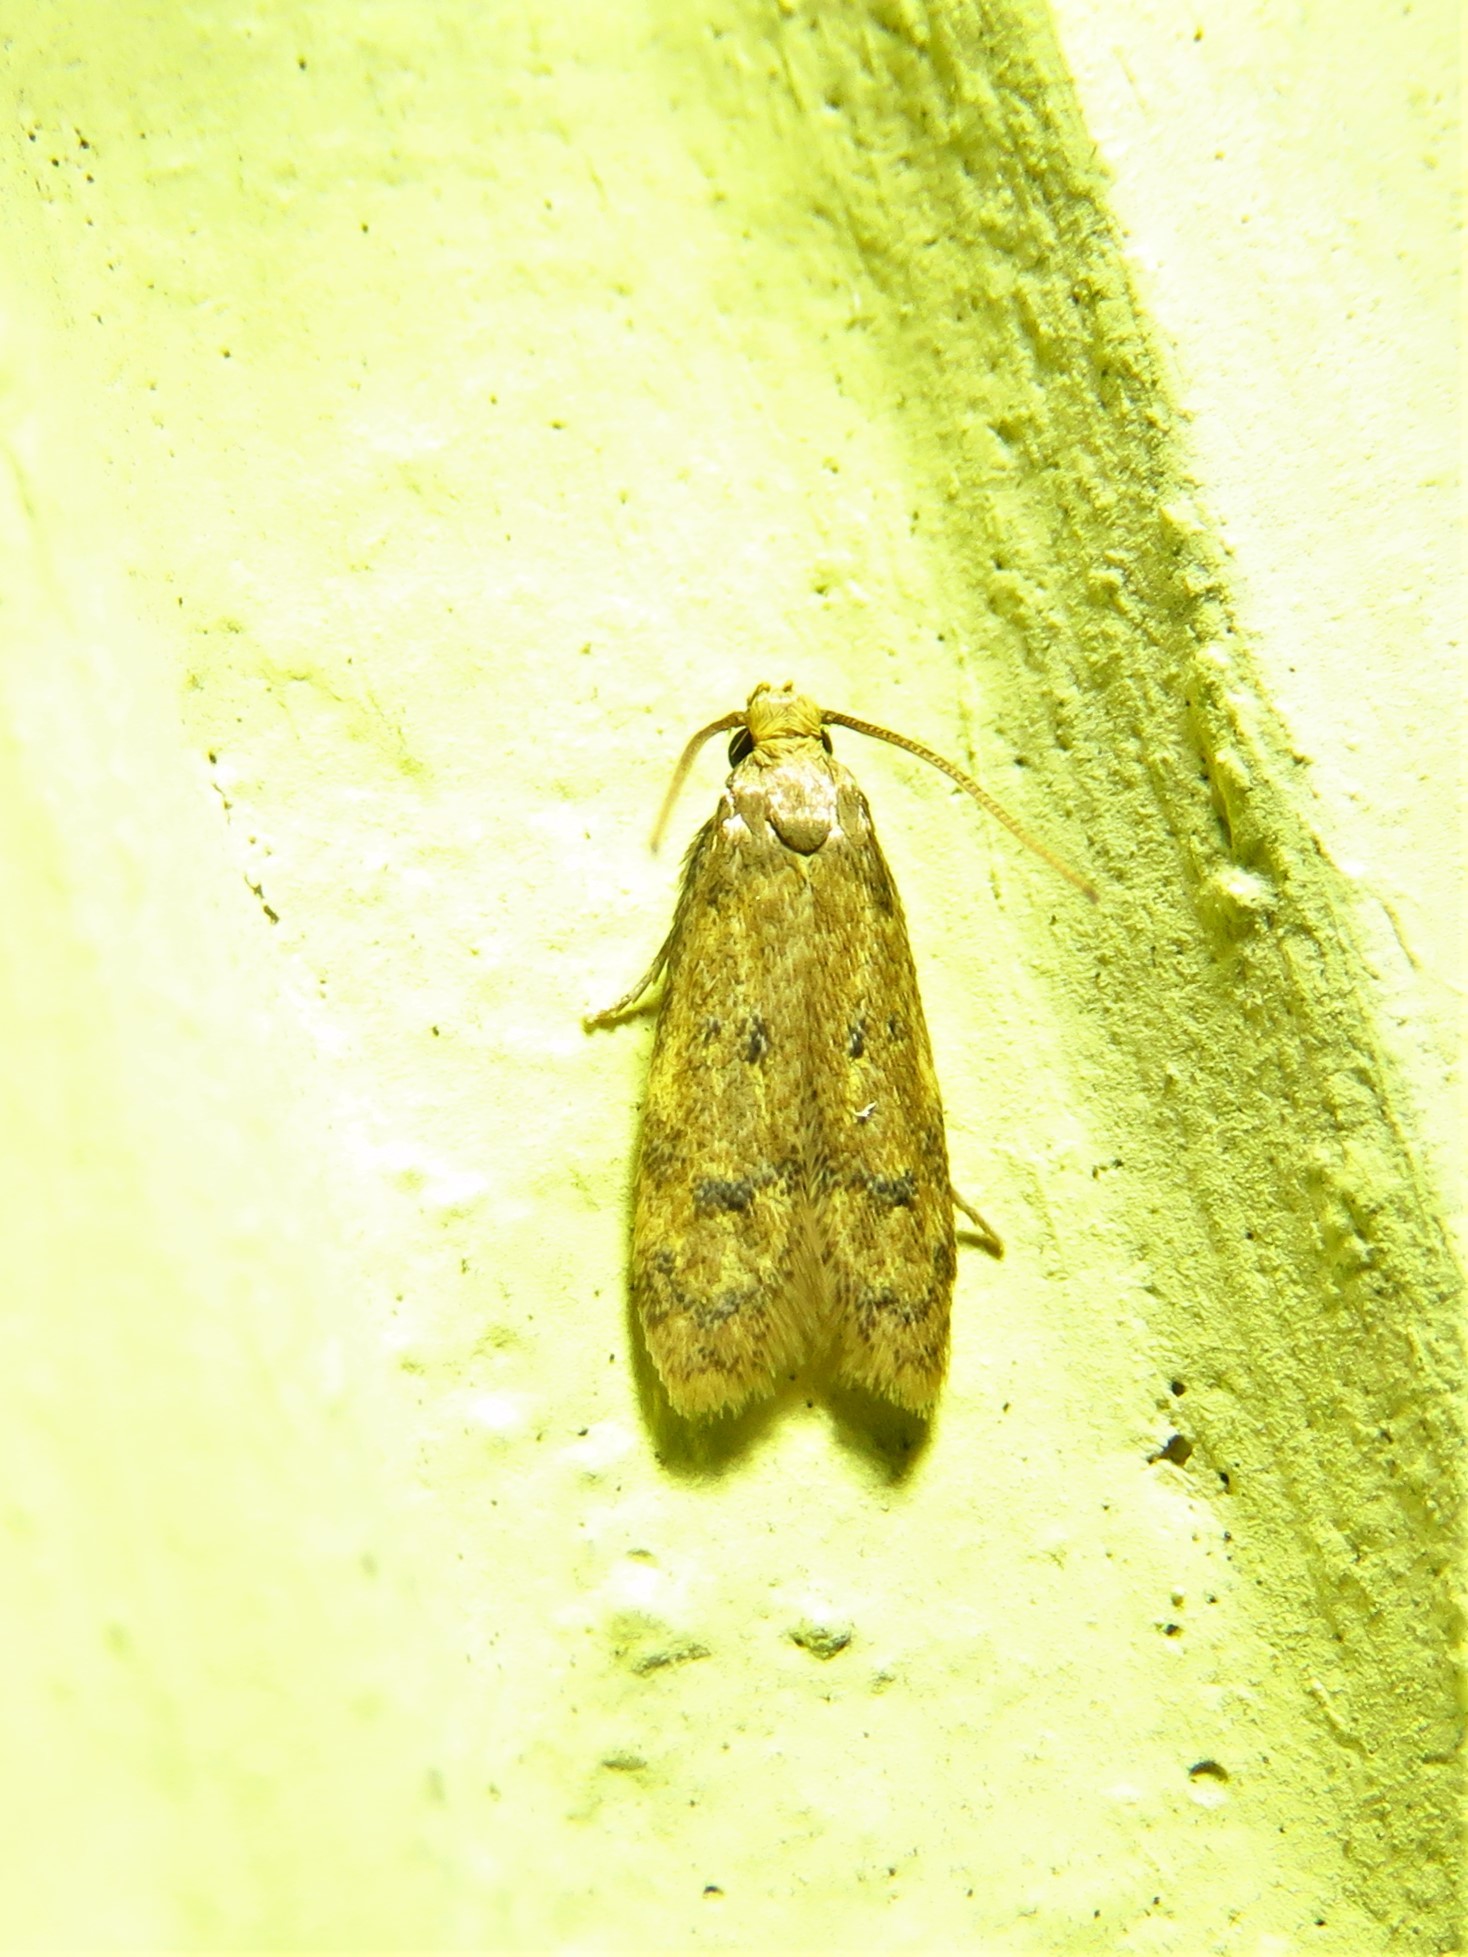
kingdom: Animalia
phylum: Arthropoda
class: Insecta
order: Lepidoptera
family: Autostichidae
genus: Gerdana
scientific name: Gerdana caritella
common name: Gerdana moth
